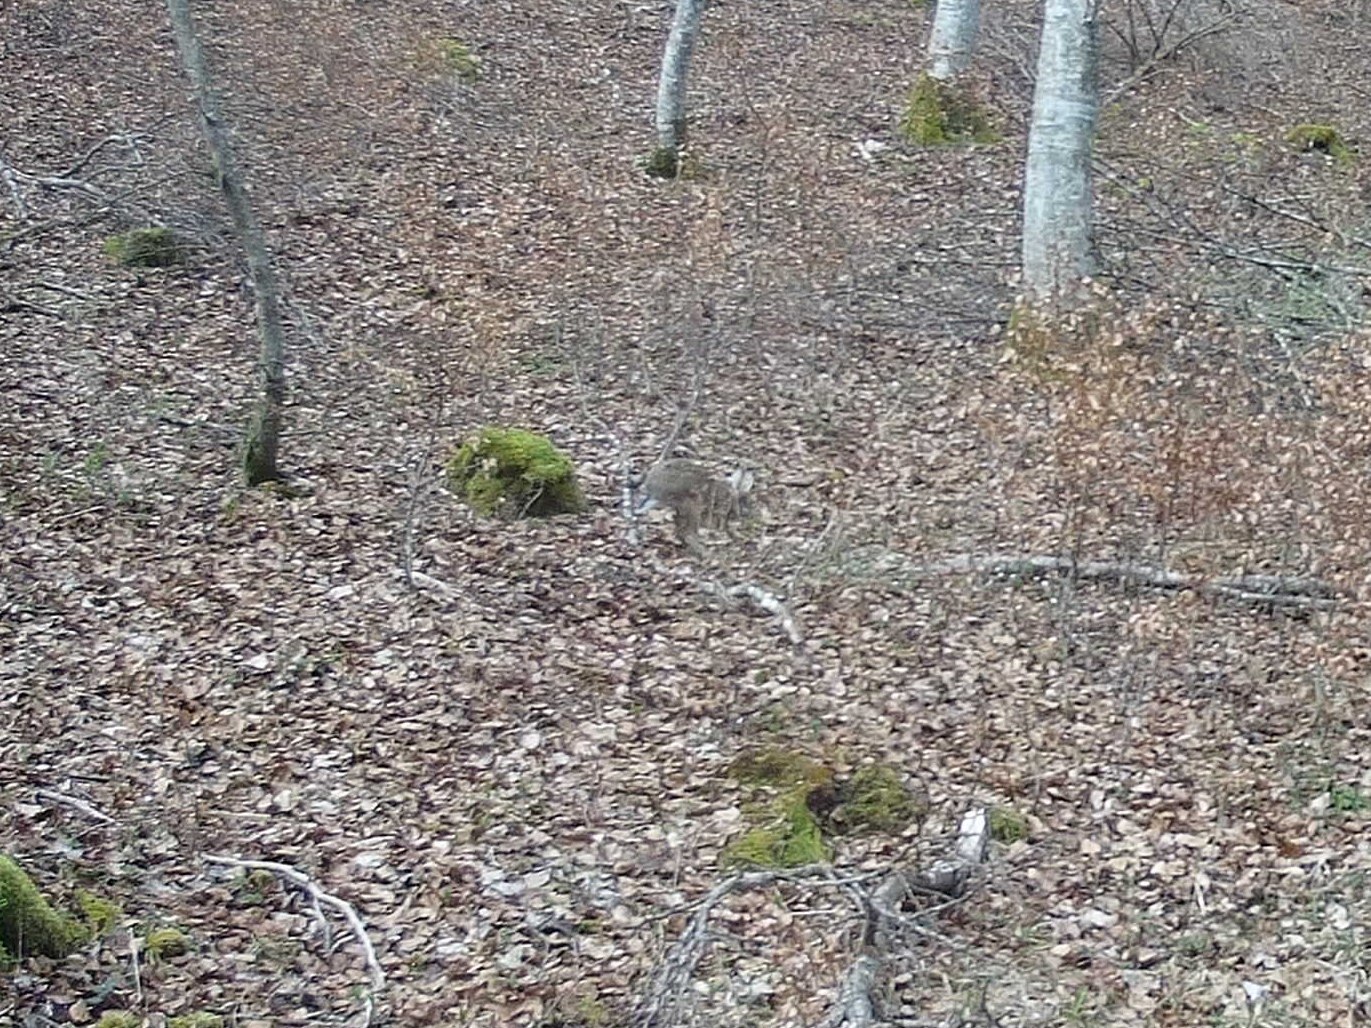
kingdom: Animalia
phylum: Chordata
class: Mammalia
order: Lagomorpha
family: Leporidae
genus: Lepus
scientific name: Lepus europaeus
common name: European hare
